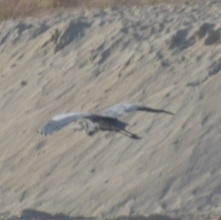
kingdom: Animalia
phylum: Chordata
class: Aves
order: Pelecaniformes
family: Ardeidae
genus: Ardea
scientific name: Ardea herodias
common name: Great blue heron
